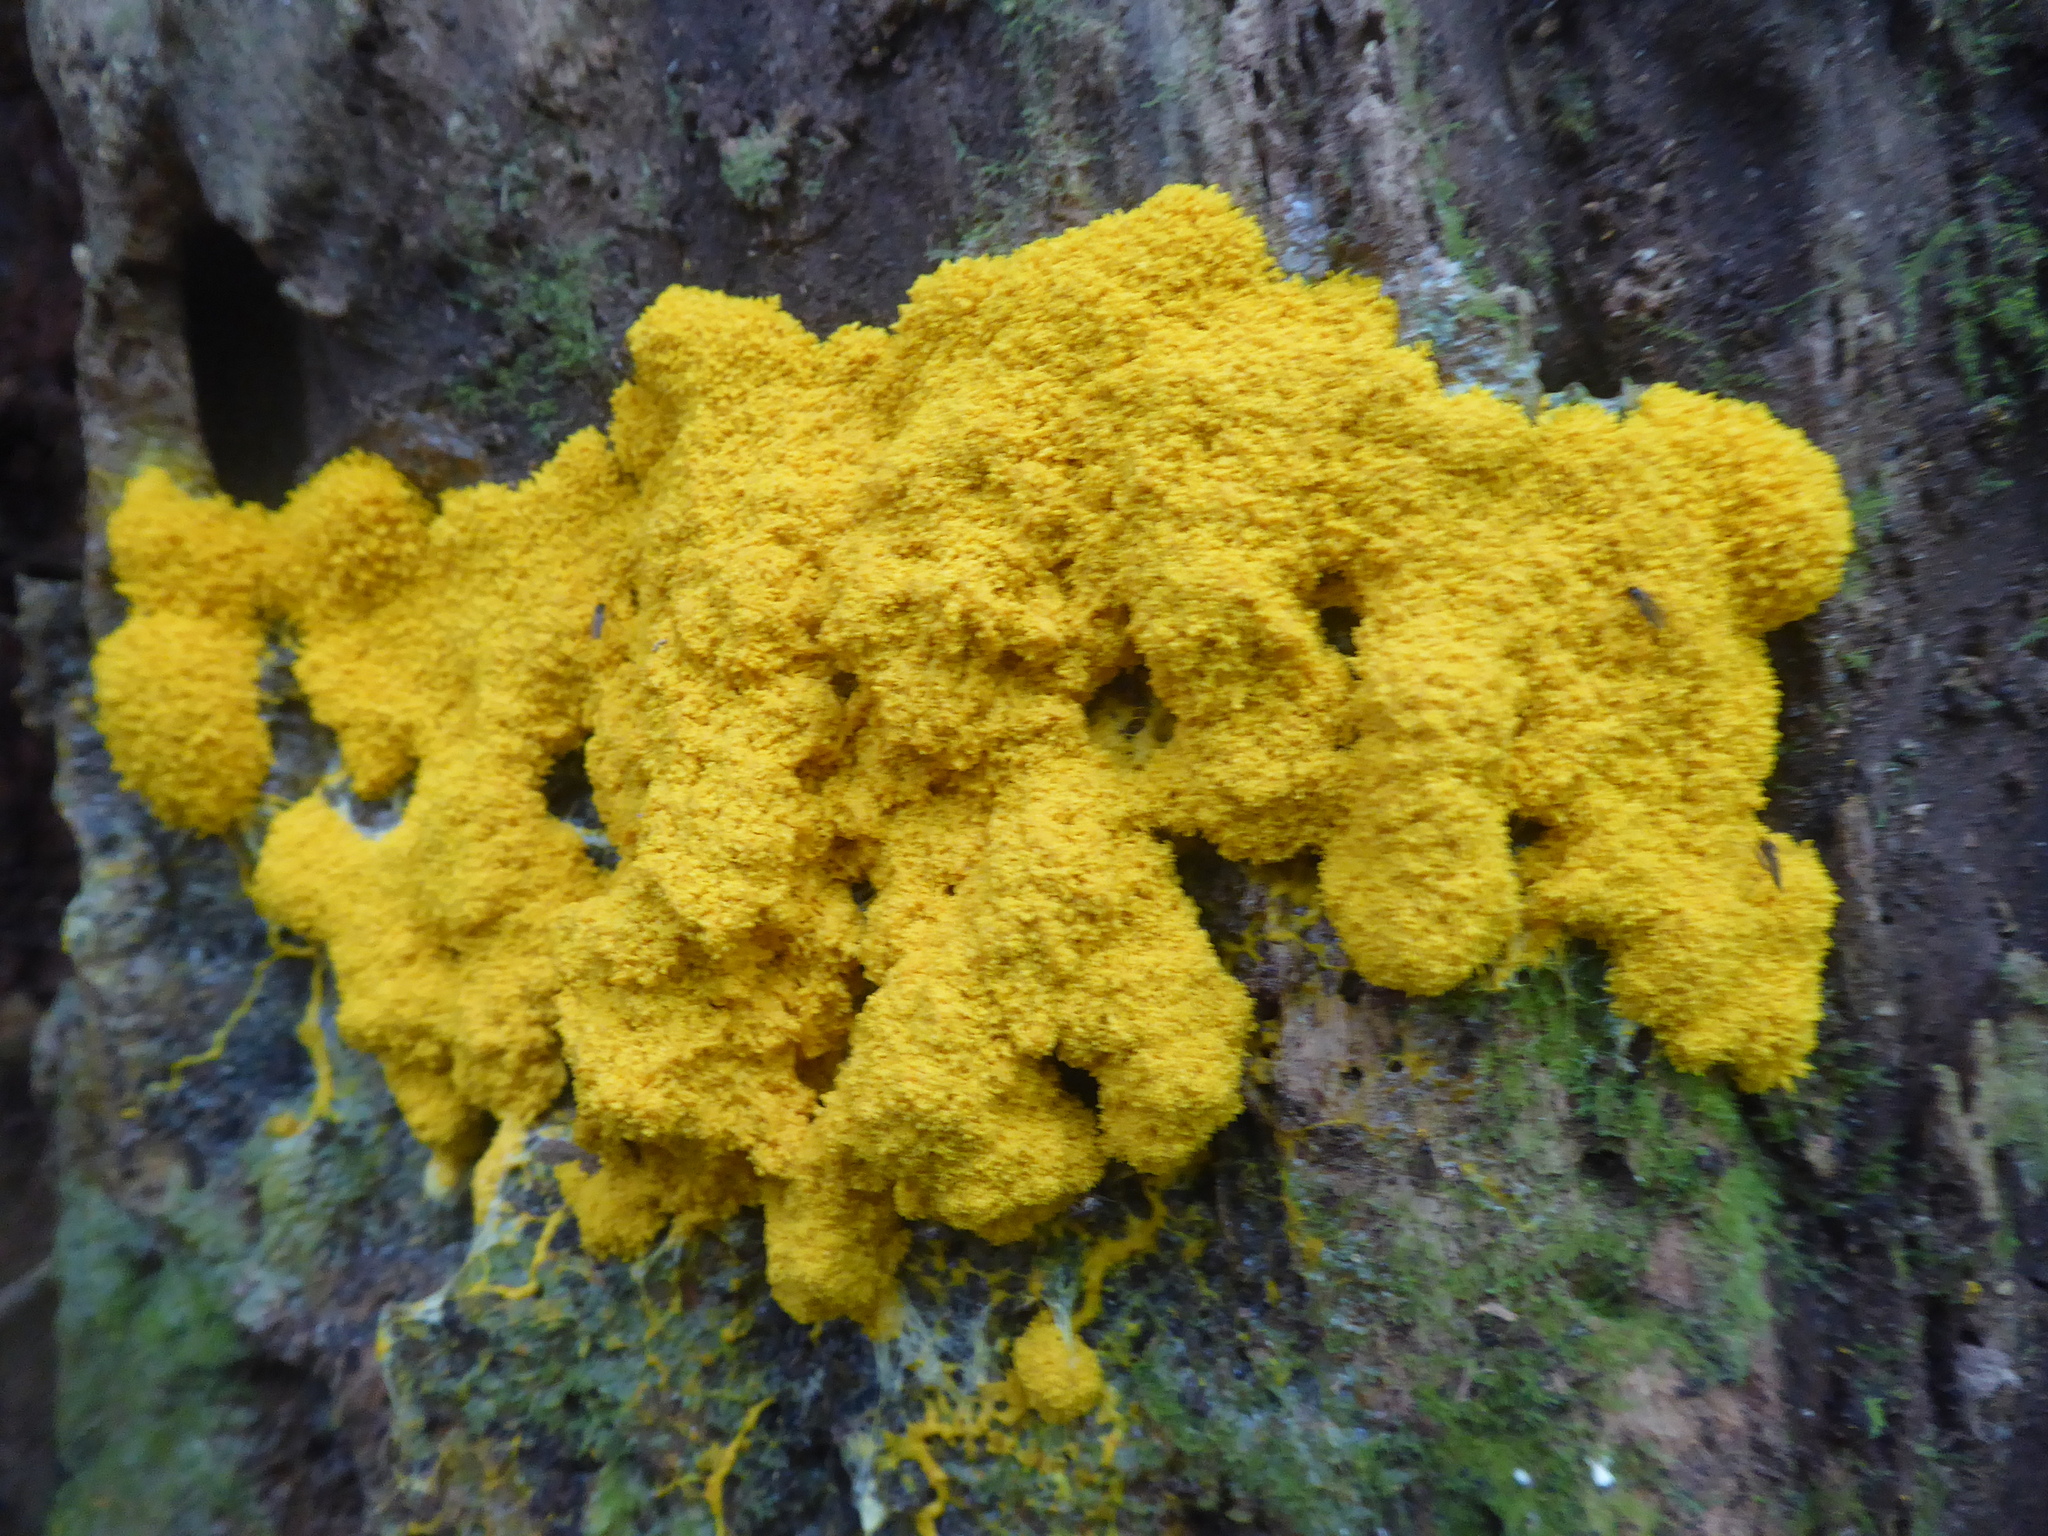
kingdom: Protozoa
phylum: Mycetozoa
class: Myxomycetes
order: Physarales
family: Physaraceae
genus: Fuligo
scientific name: Fuligo septica
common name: Dog vomit slime mold
